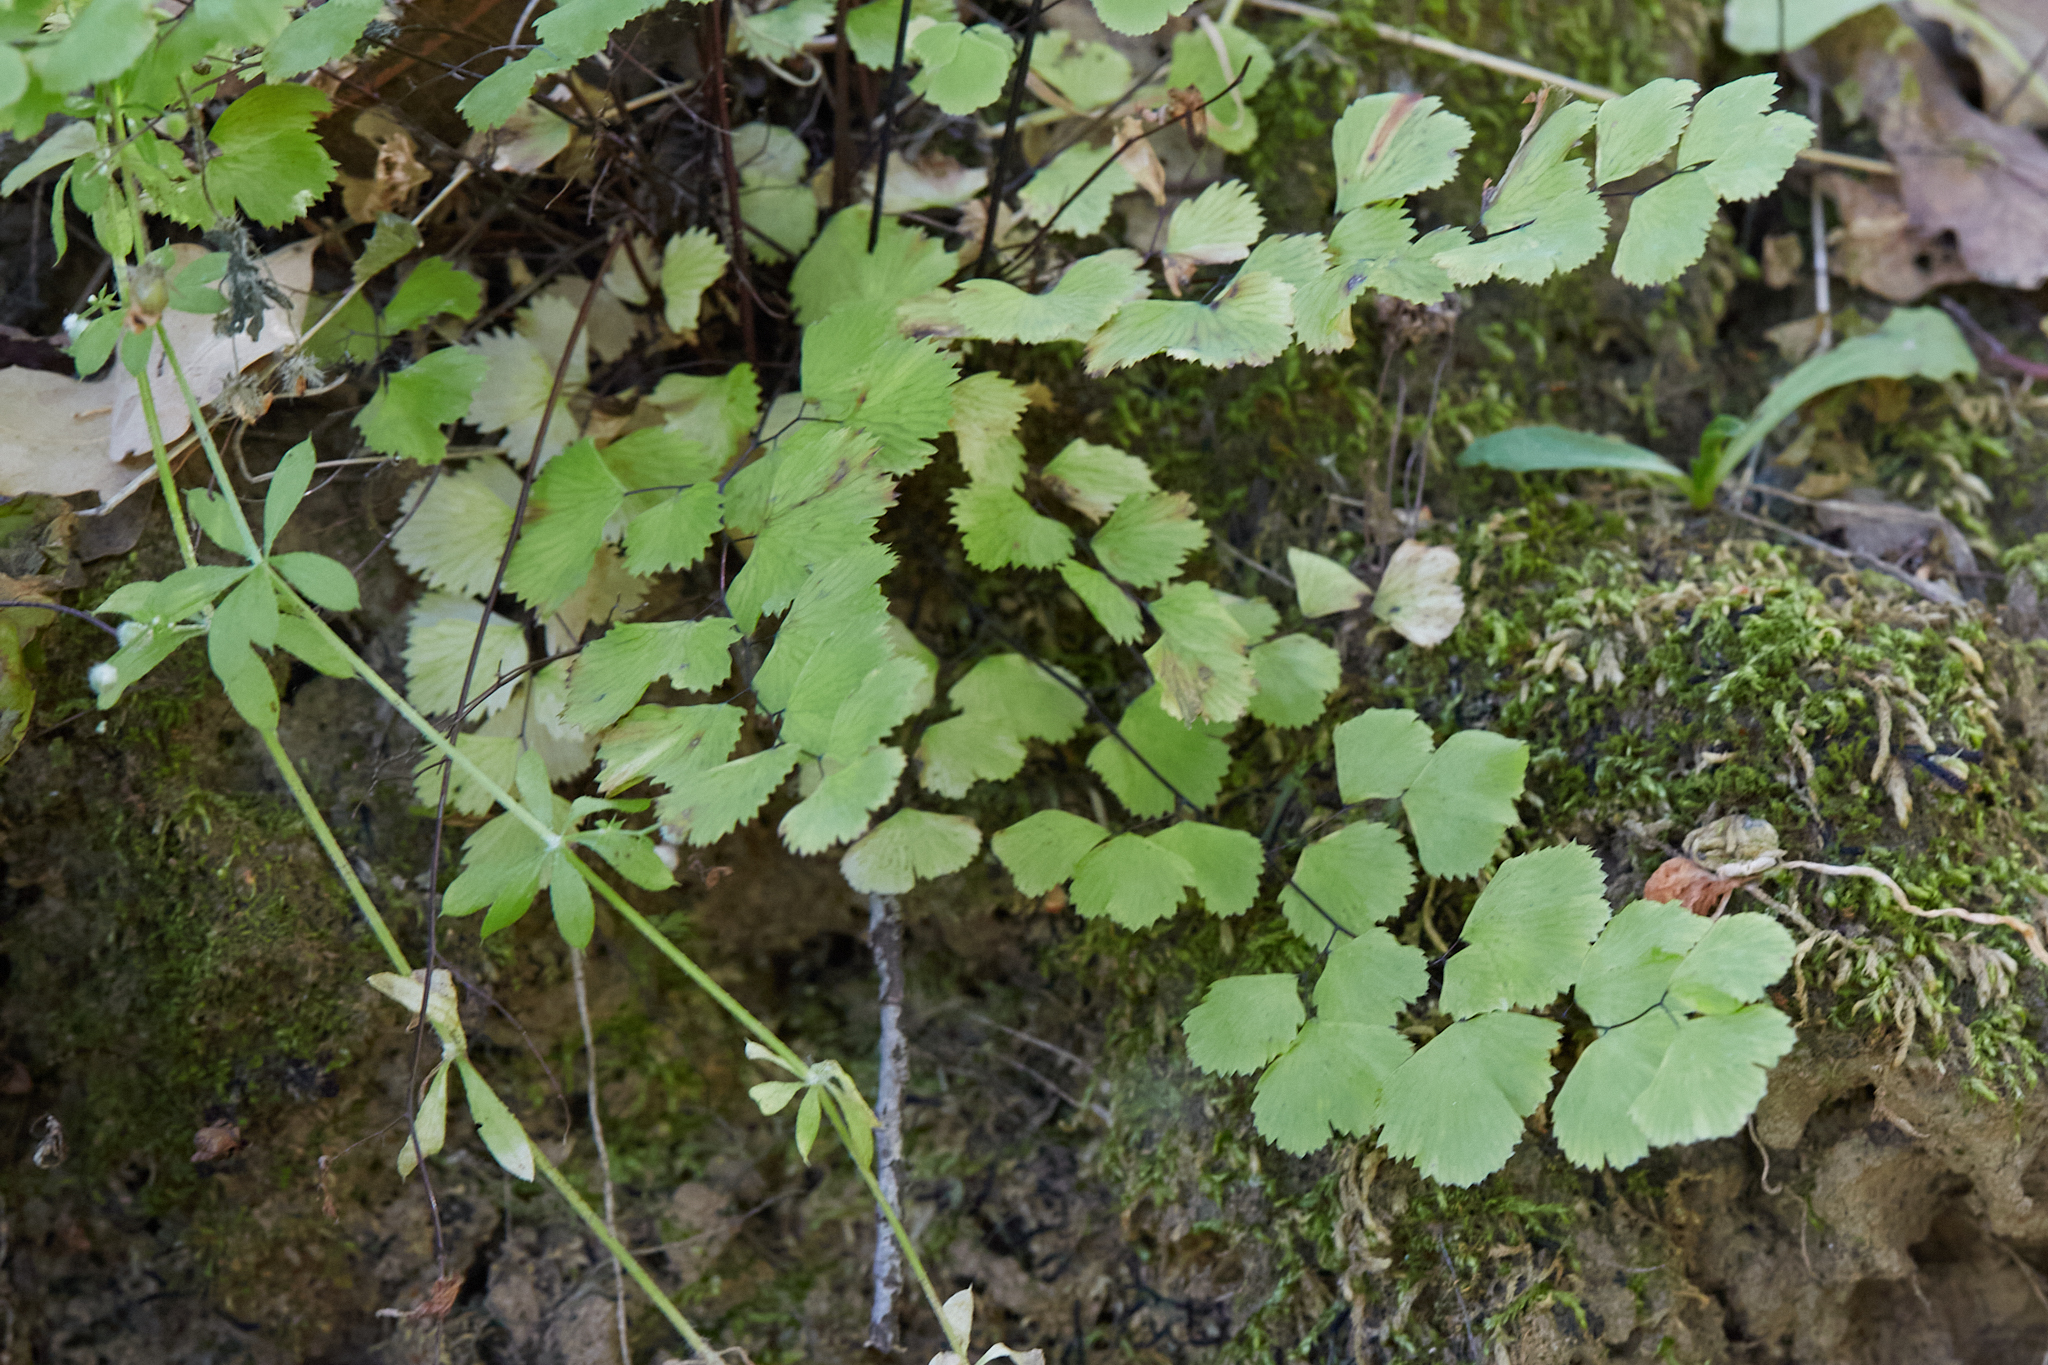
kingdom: Plantae
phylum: Tracheophyta
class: Polypodiopsida
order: Polypodiales
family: Pteridaceae
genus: Adiantum
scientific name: Adiantum jordanii
